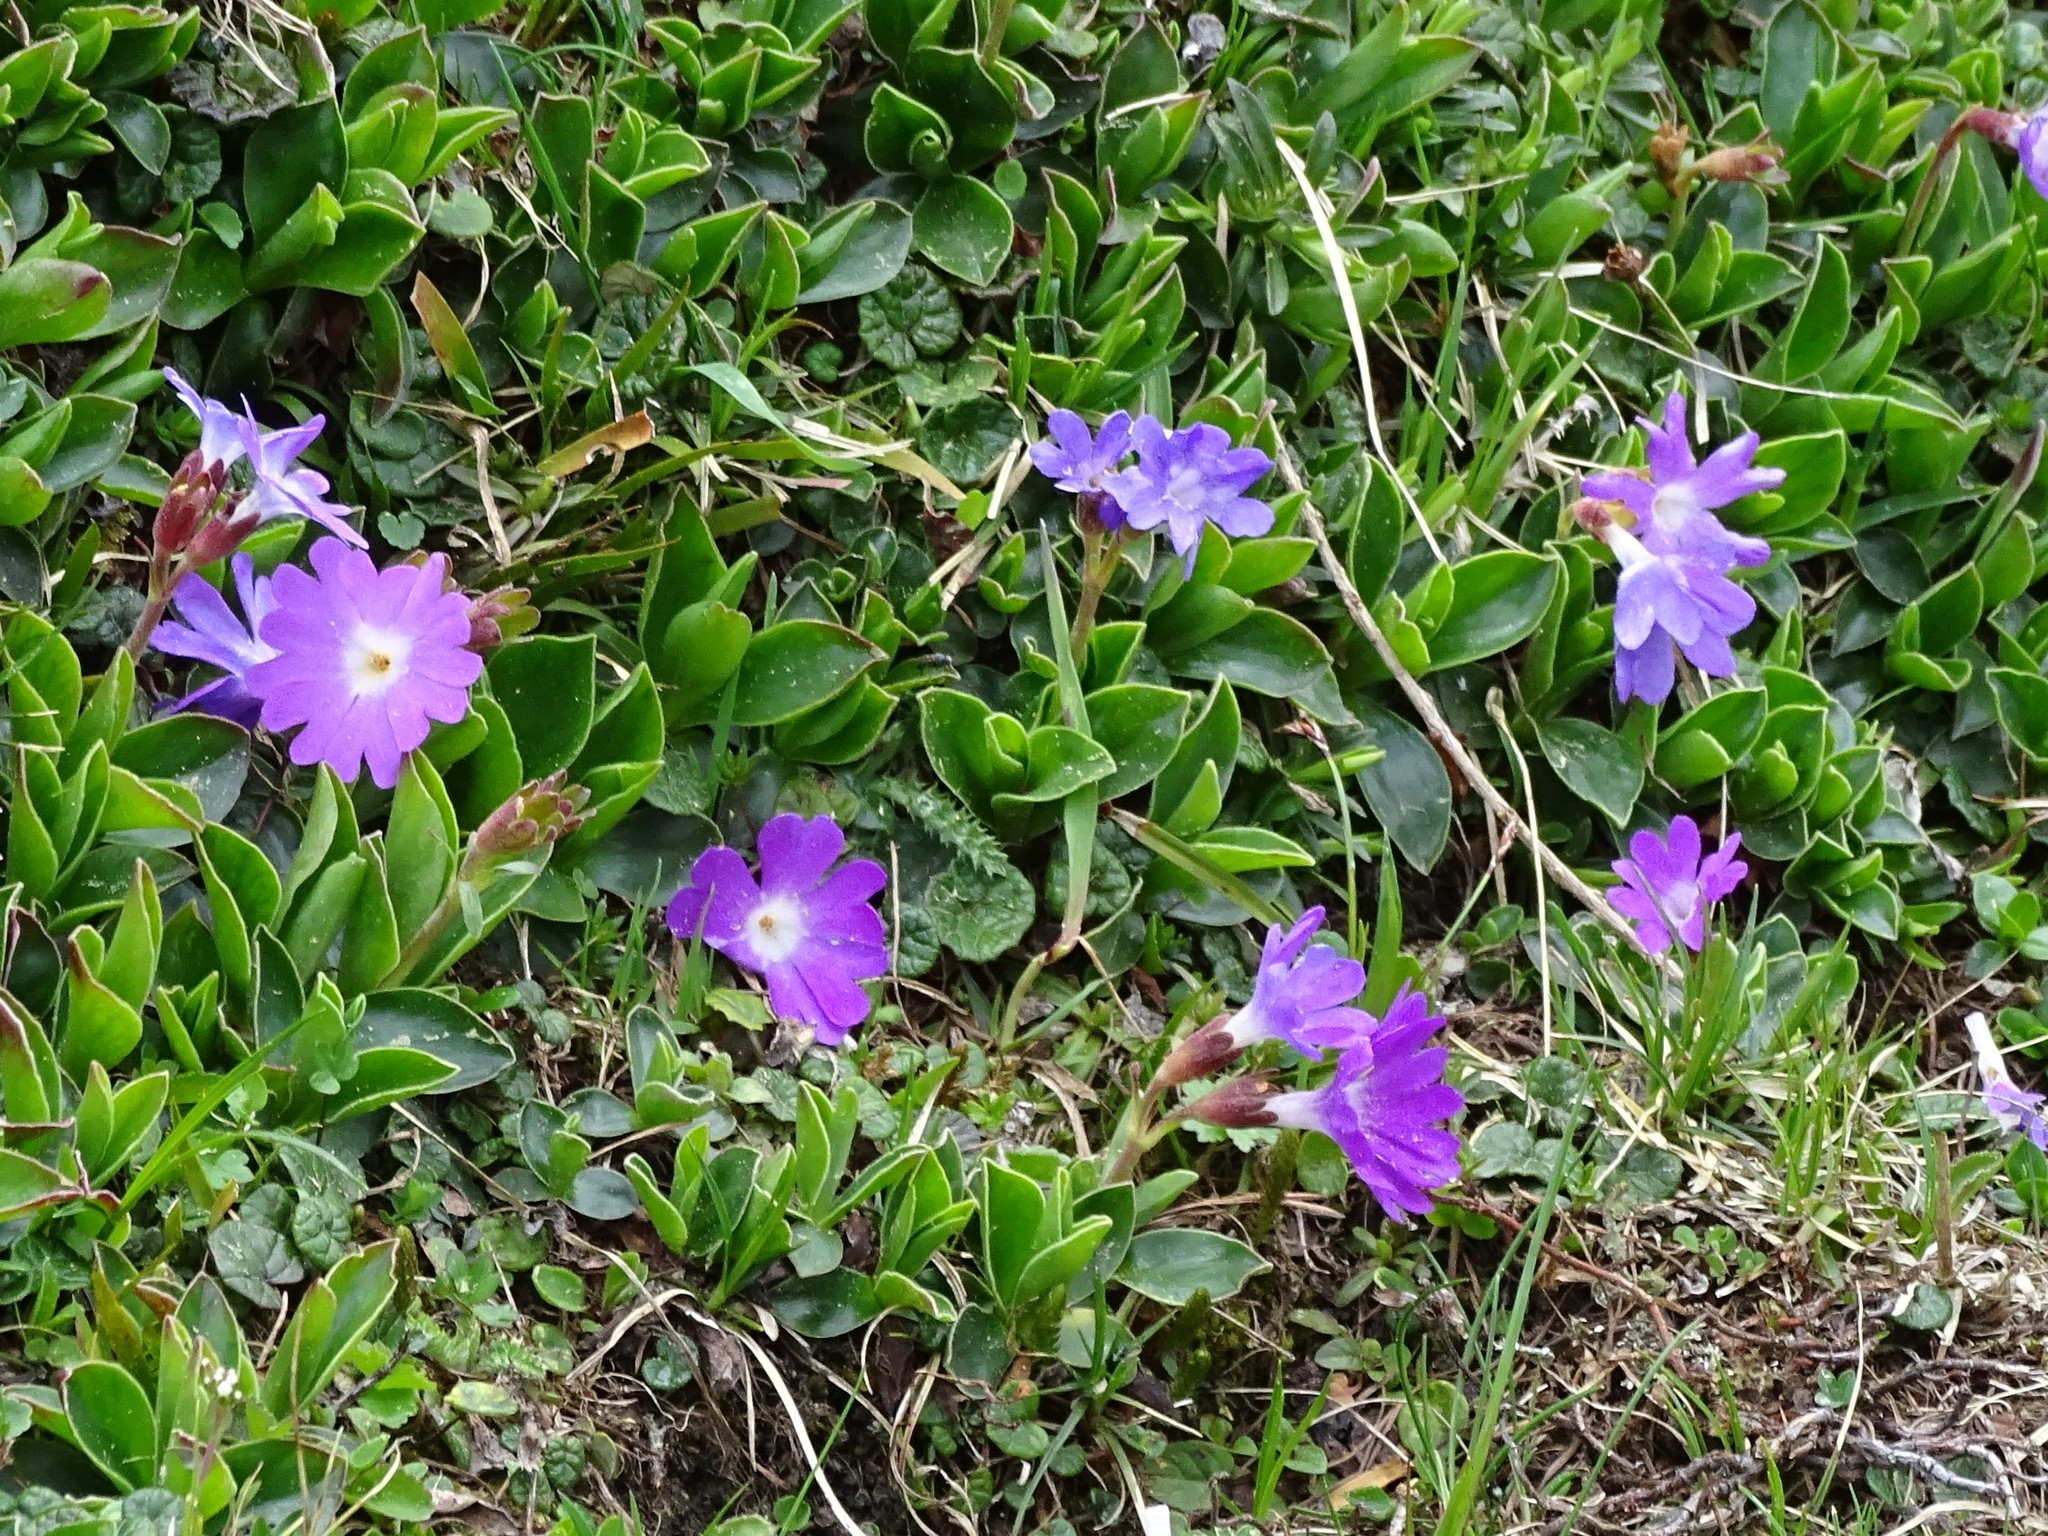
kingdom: Plantae
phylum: Tracheophyta
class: Magnoliopsida
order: Ericales
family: Primulaceae
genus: Primula
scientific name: Primula clusiana
